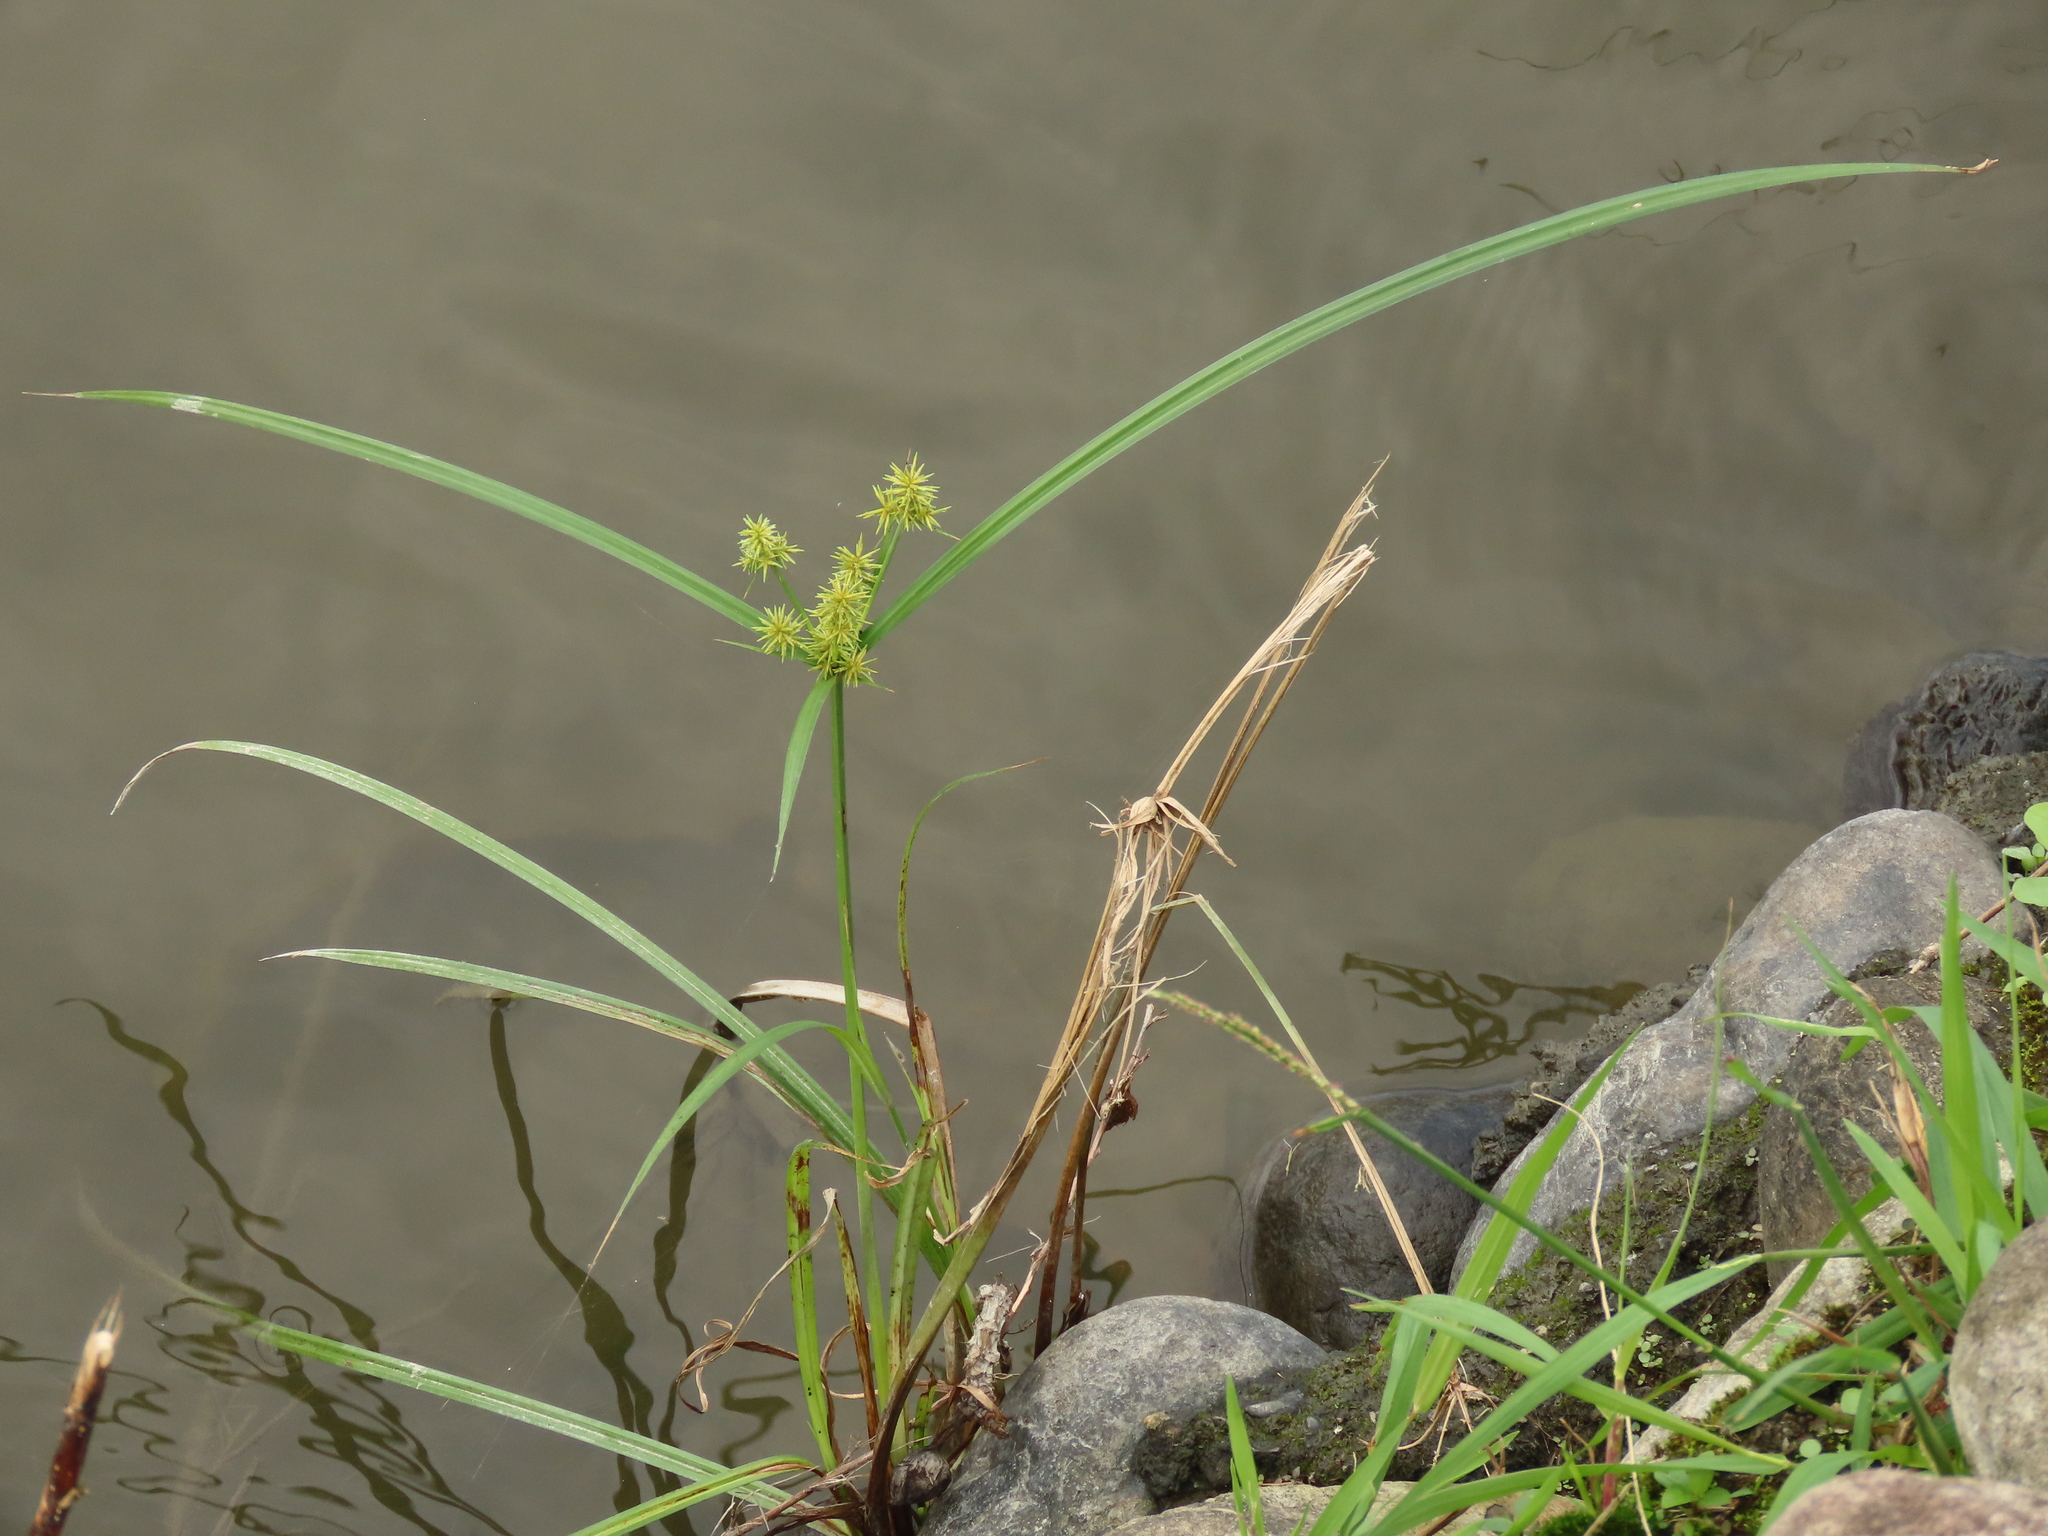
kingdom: Plantae
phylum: Tracheophyta
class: Liliopsida
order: Poales
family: Cyperaceae
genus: Cyperus
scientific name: Cyperus odoratus
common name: Fragrant flatsedge
